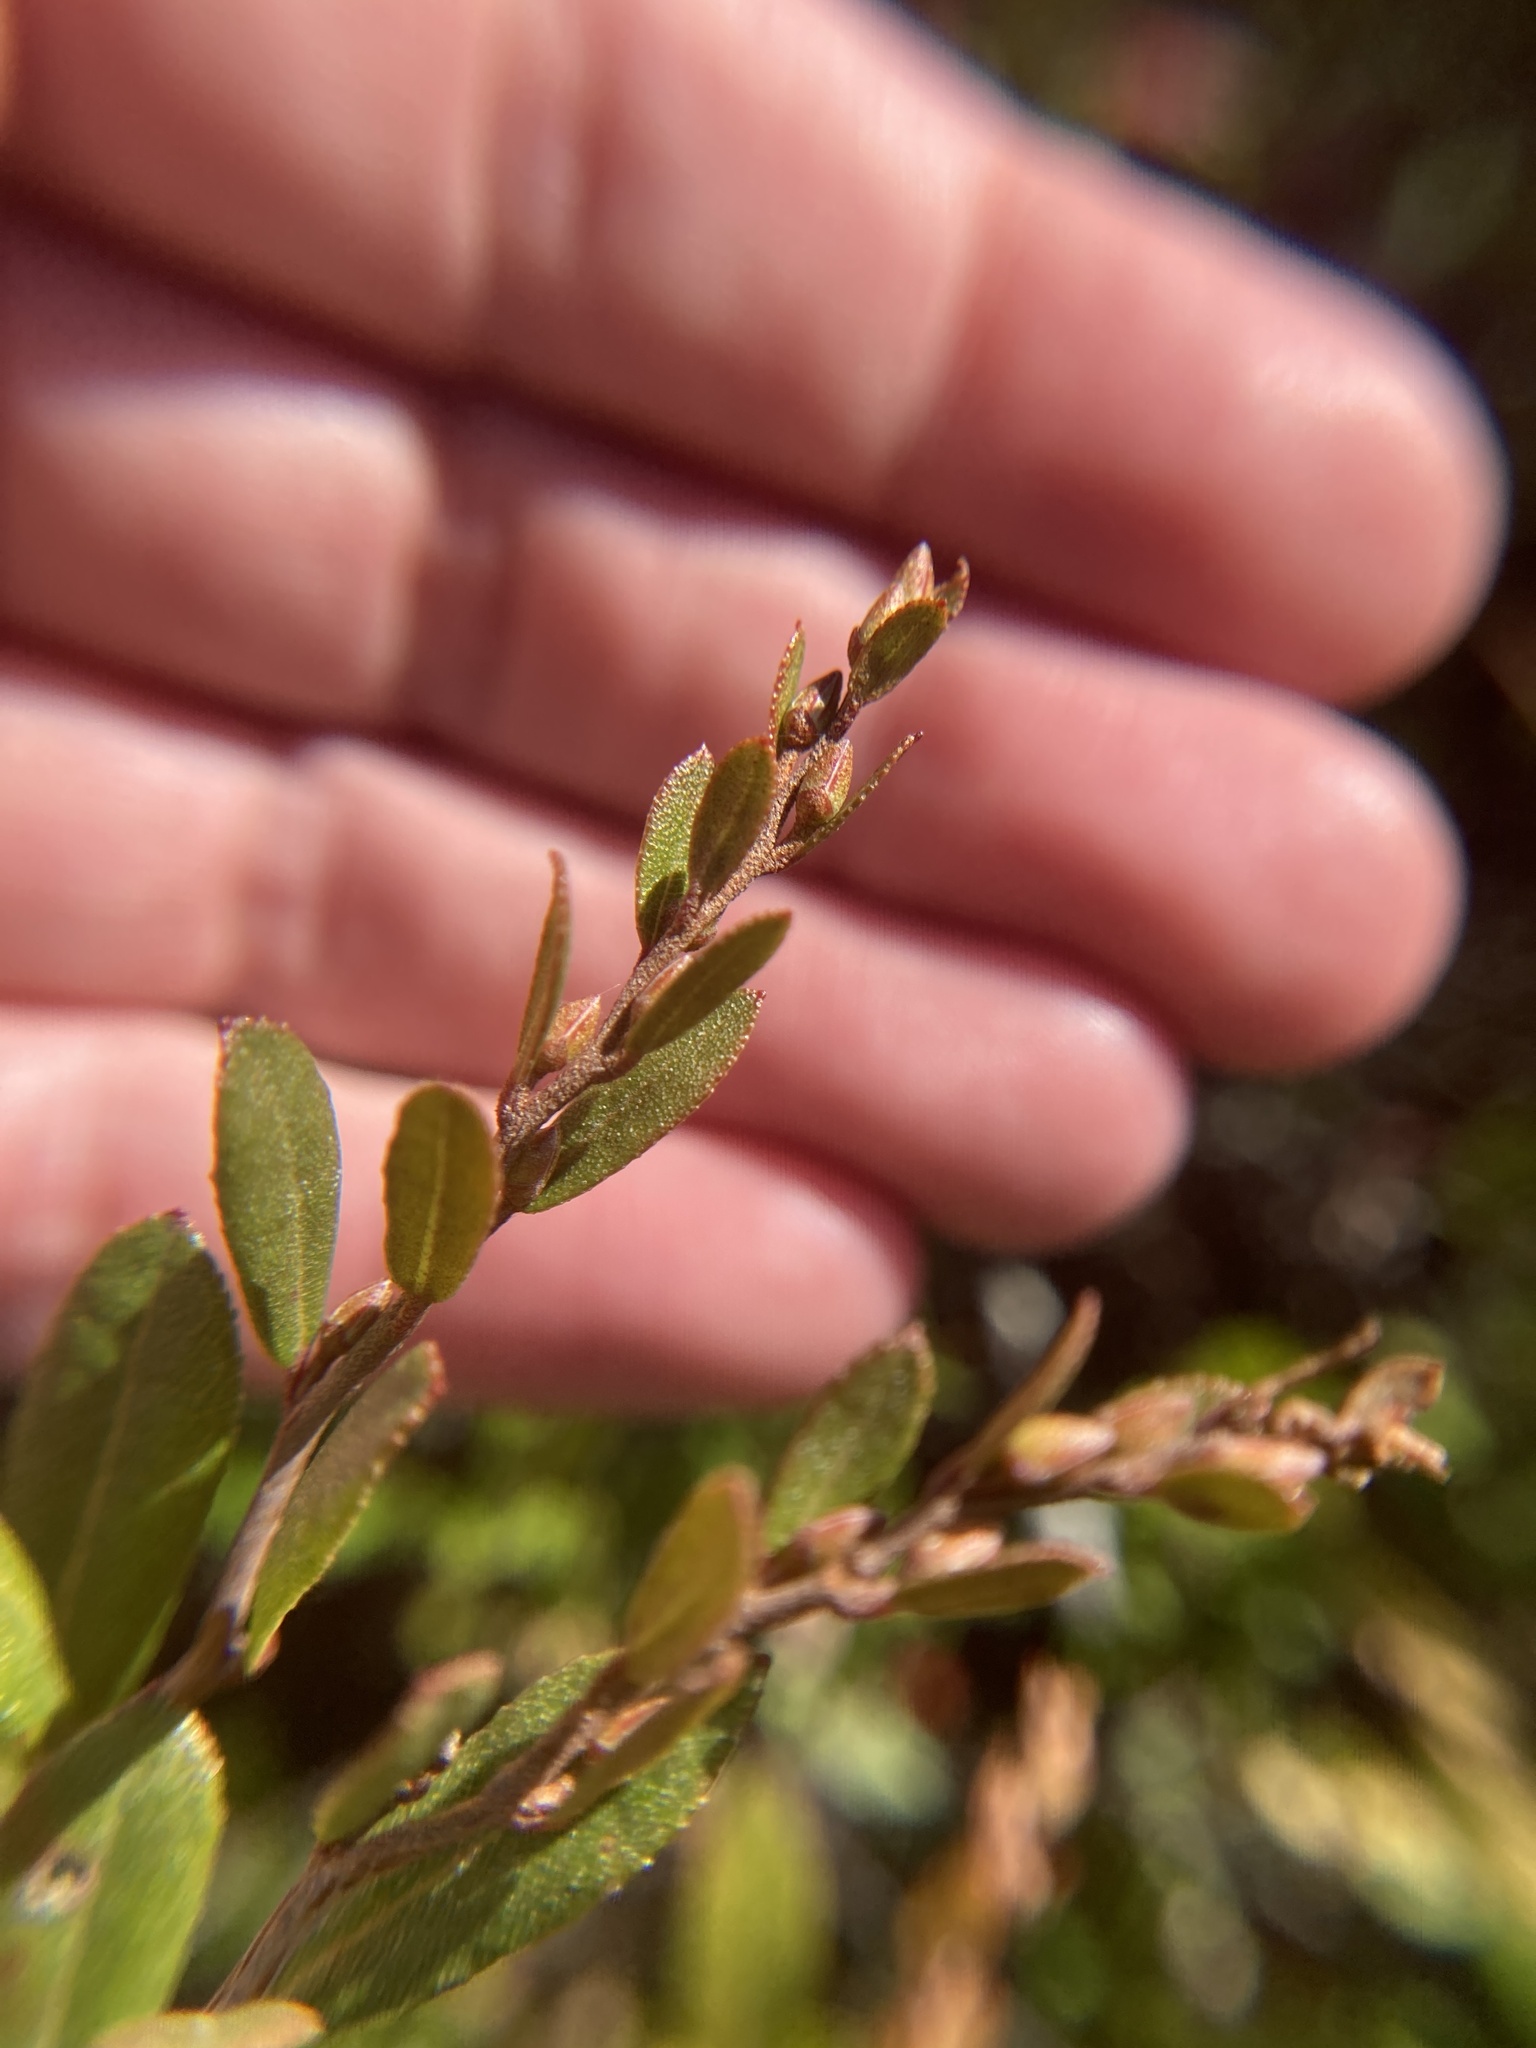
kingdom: Plantae
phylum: Tracheophyta
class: Magnoliopsida
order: Ericales
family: Ericaceae
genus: Chamaedaphne
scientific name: Chamaedaphne calyculata
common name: Leatherleaf
